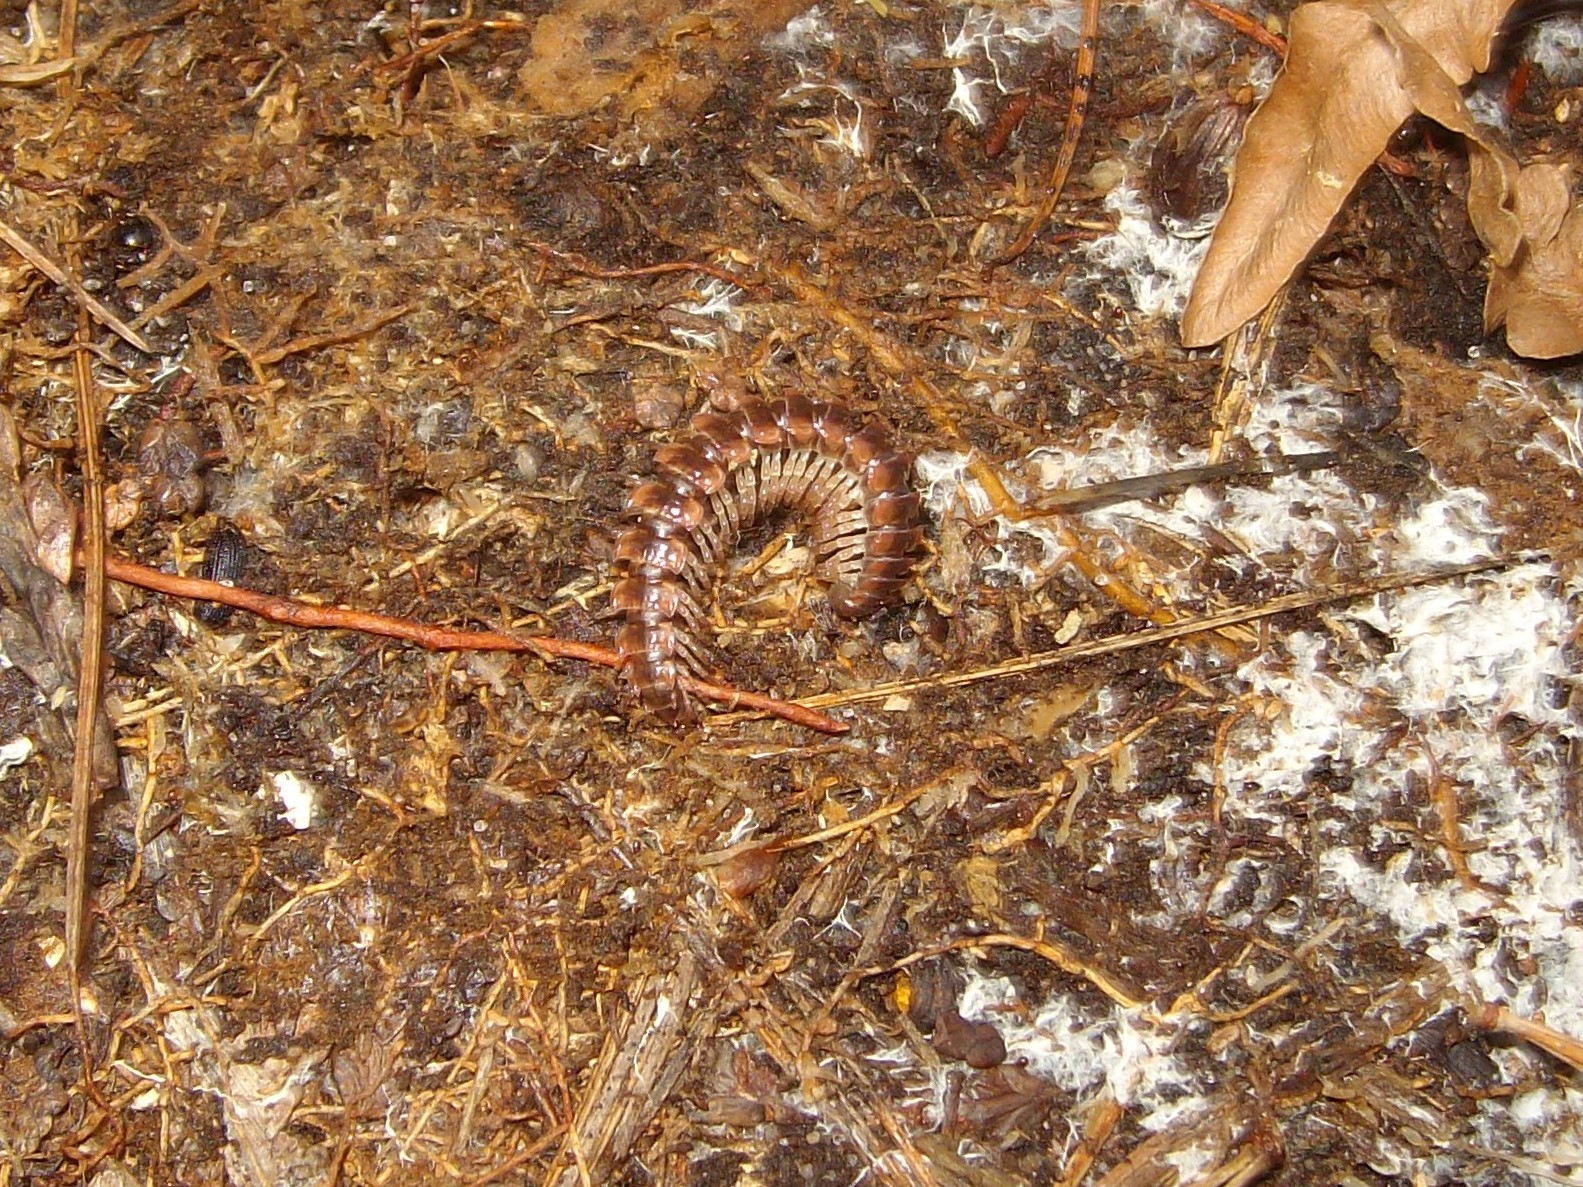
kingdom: Animalia
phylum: Arthropoda
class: Diplopoda
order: Polydesmida
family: Polydesmidae
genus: Pseudopolydesmus
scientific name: Pseudopolydesmus canadensis
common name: Canadian flat-back millipede
